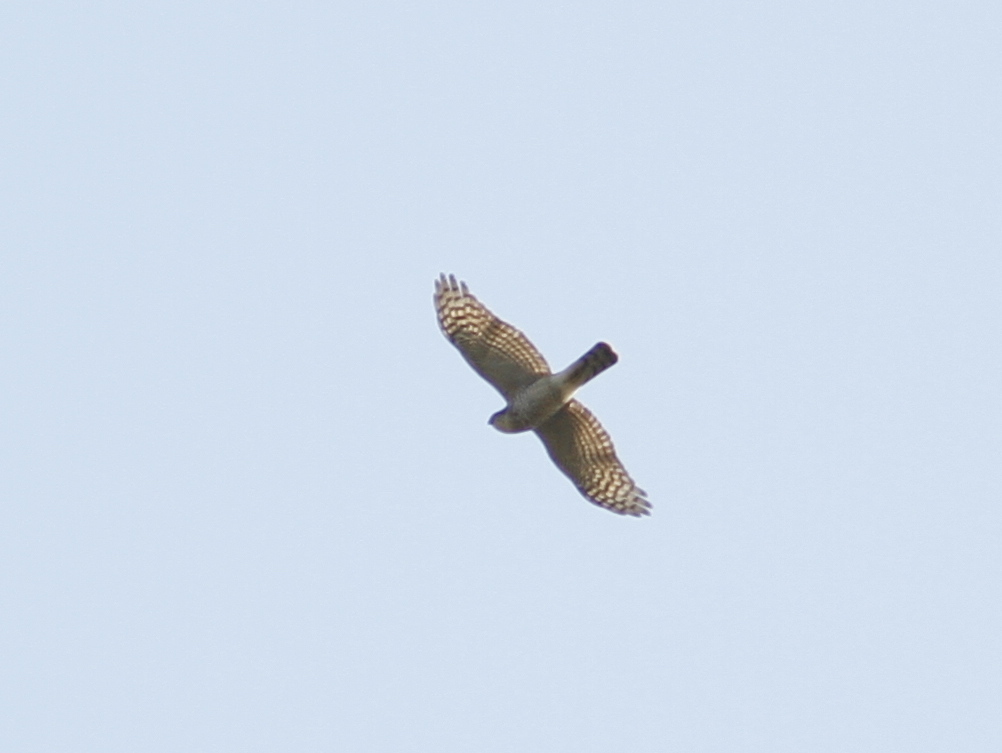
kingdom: Animalia
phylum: Chordata
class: Aves
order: Accipitriformes
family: Accipitridae
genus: Accipiter
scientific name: Accipiter nisus
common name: Eurasian sparrowhawk
